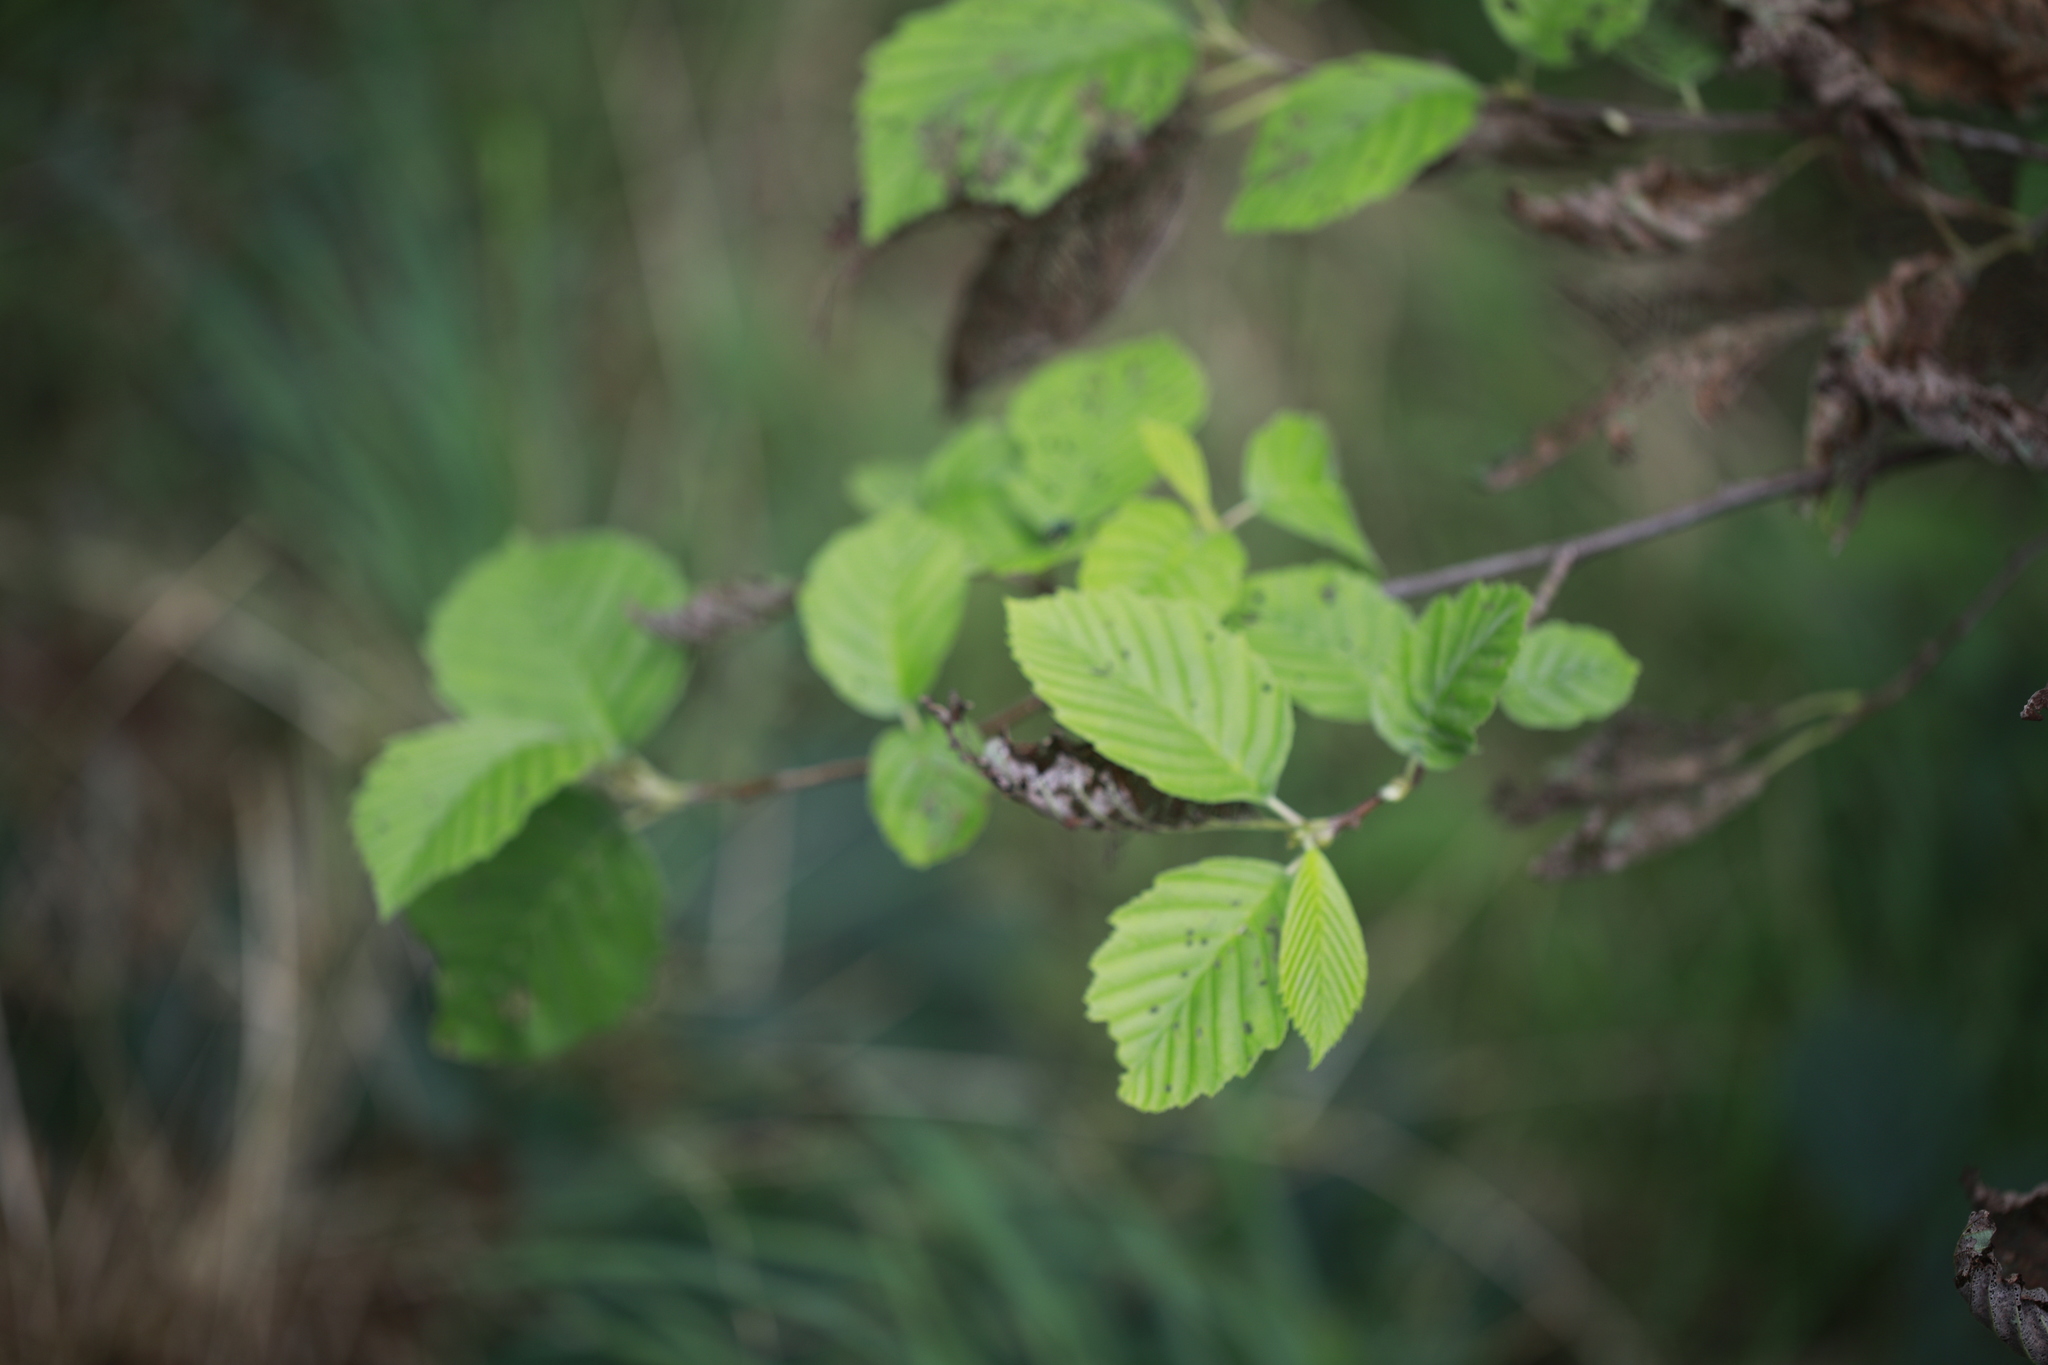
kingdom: Plantae
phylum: Tracheophyta
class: Magnoliopsida
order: Fagales
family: Betulaceae
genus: Alnus
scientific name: Alnus incana
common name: Grey alder
